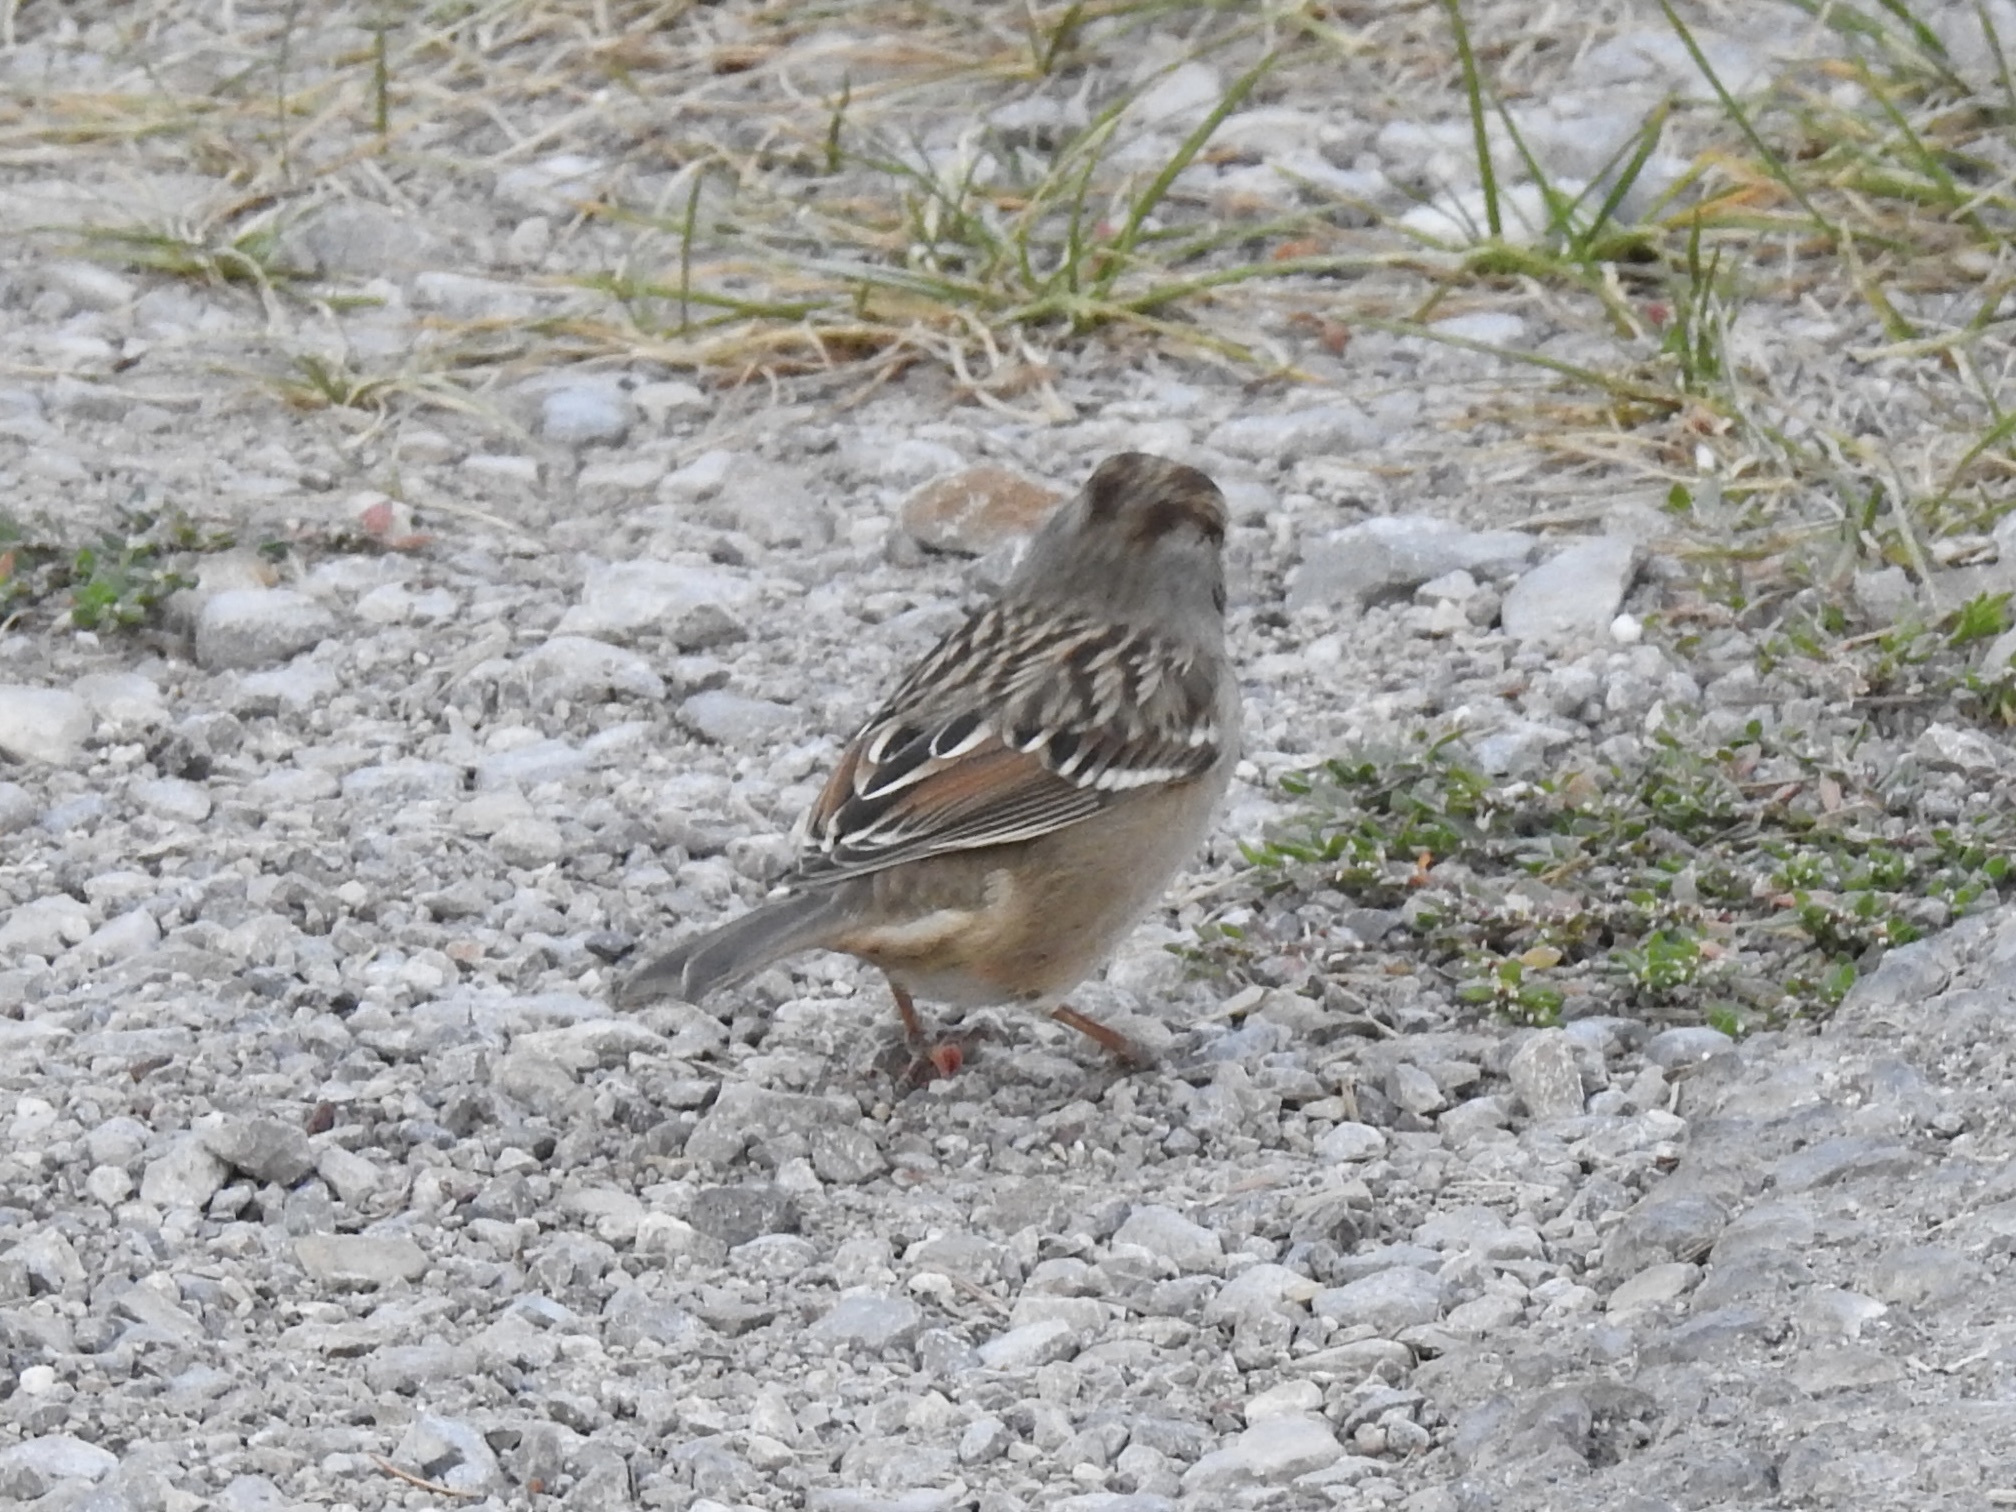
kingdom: Animalia
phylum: Chordata
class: Aves
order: Passeriformes
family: Passerellidae
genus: Zonotrichia
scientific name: Zonotrichia leucophrys
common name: White-crowned sparrow
